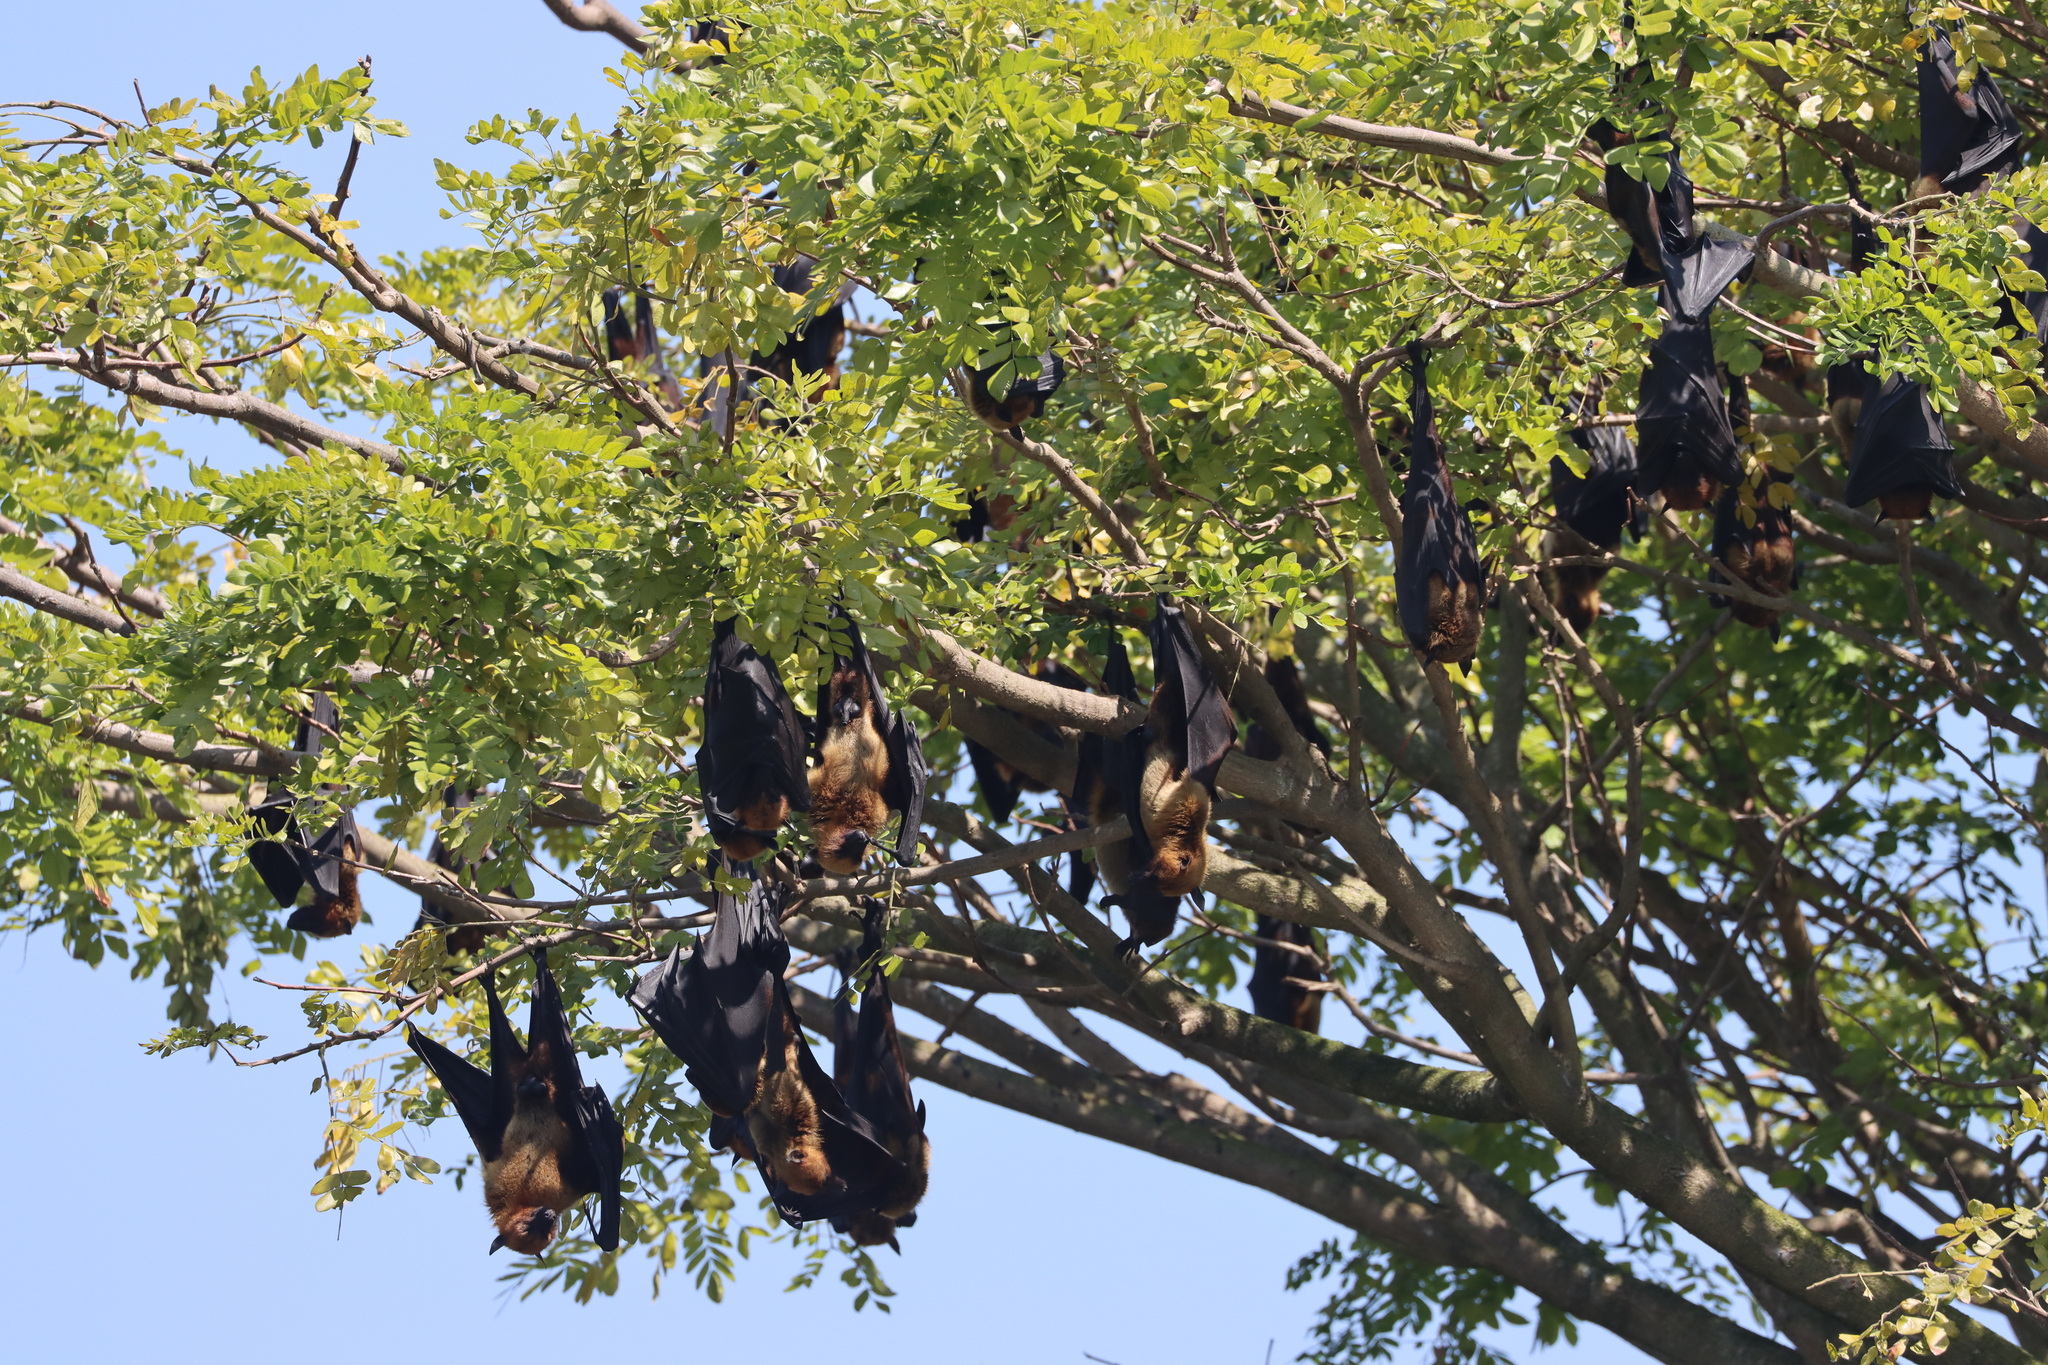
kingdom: Animalia
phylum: Chordata
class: Mammalia
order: Chiroptera
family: Pteropodidae
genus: Pteropus
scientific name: Pteropus vampyrus
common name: Large flying fox
